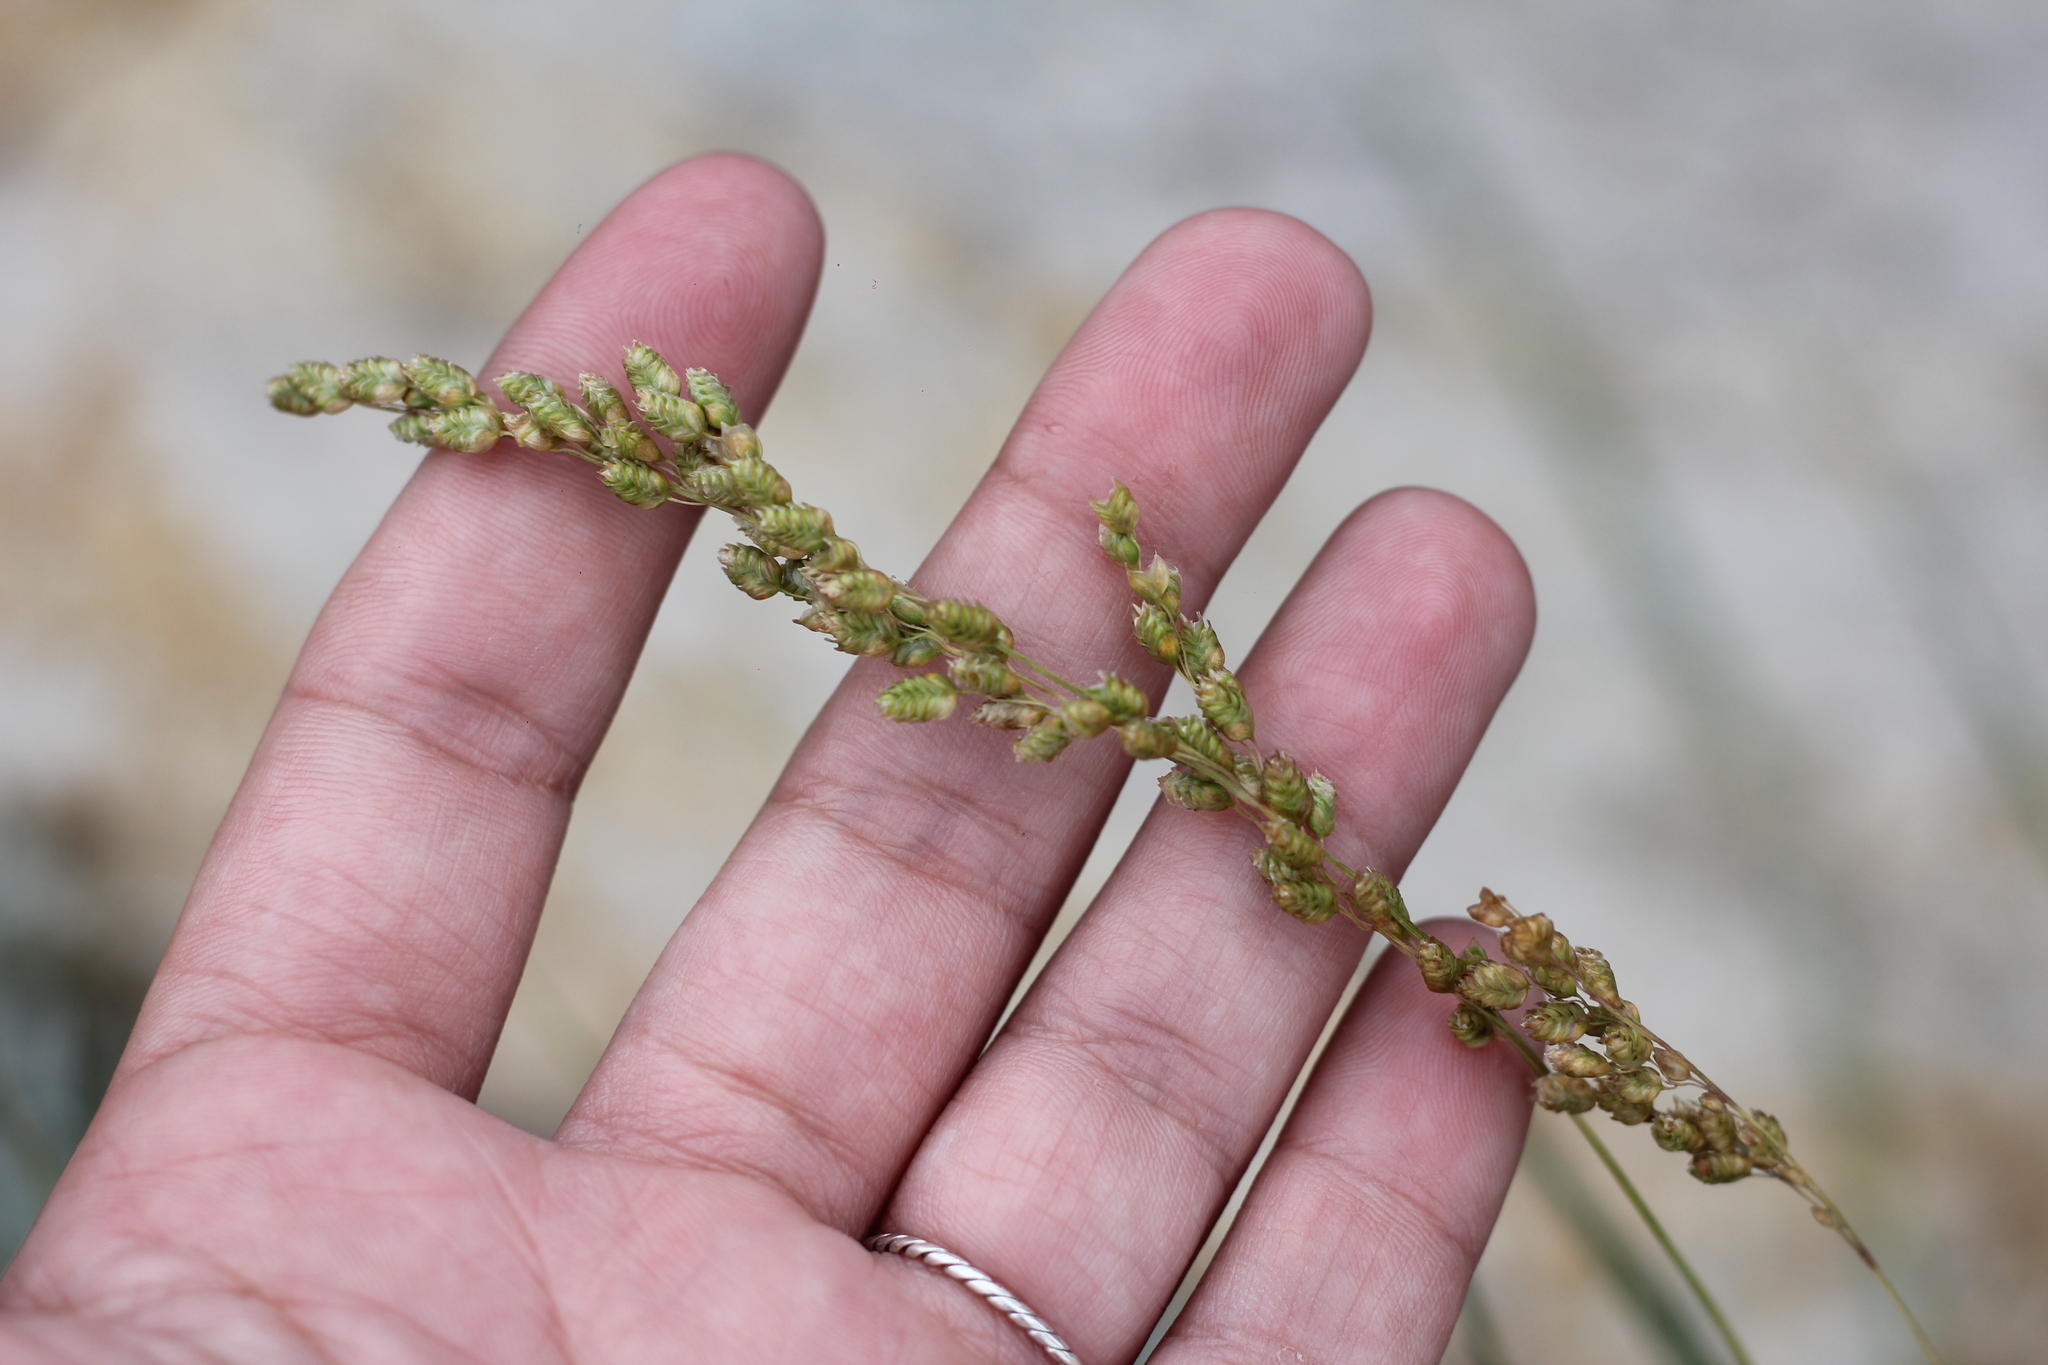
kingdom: Plantae
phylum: Tracheophyta
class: Liliopsida
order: Poales
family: Poaceae
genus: Chascolytrum
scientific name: Chascolytrum subaristatum
